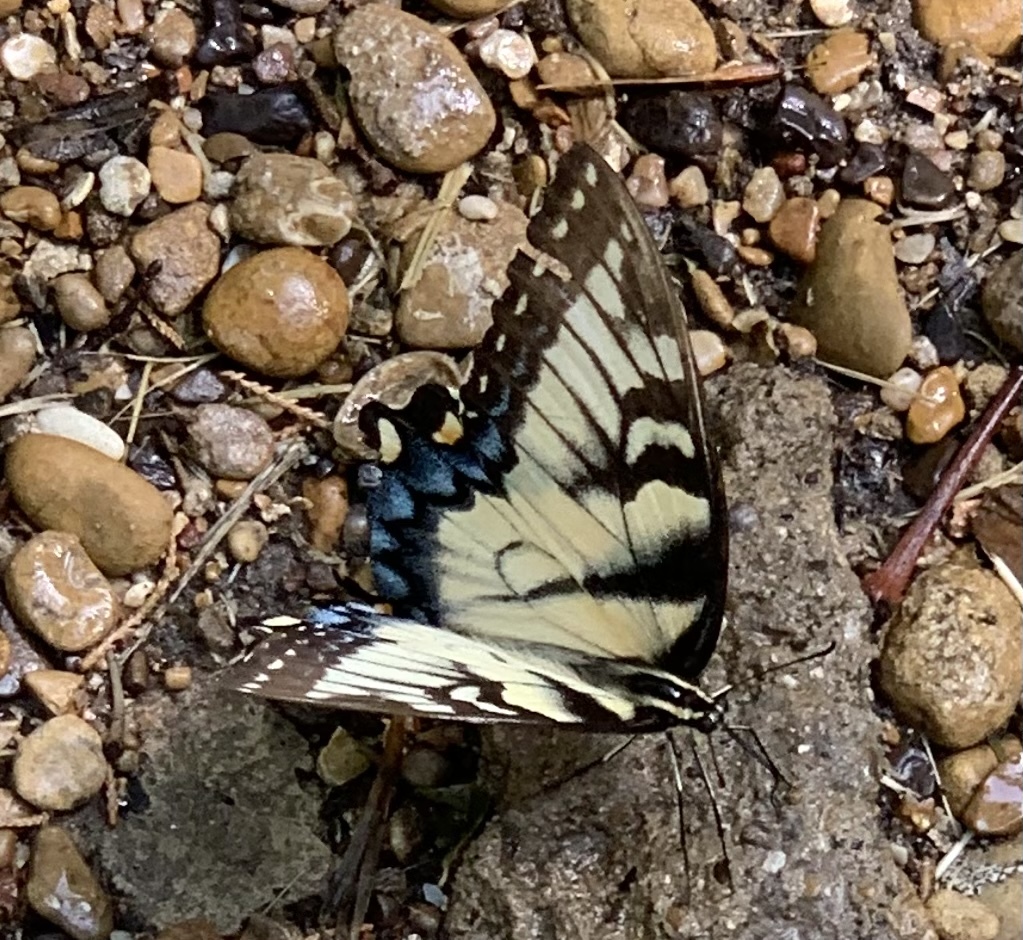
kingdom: Animalia
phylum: Arthropoda
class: Insecta
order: Lepidoptera
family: Papilionidae
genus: Papilio
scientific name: Papilio glaucus
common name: Tiger swallowtail
